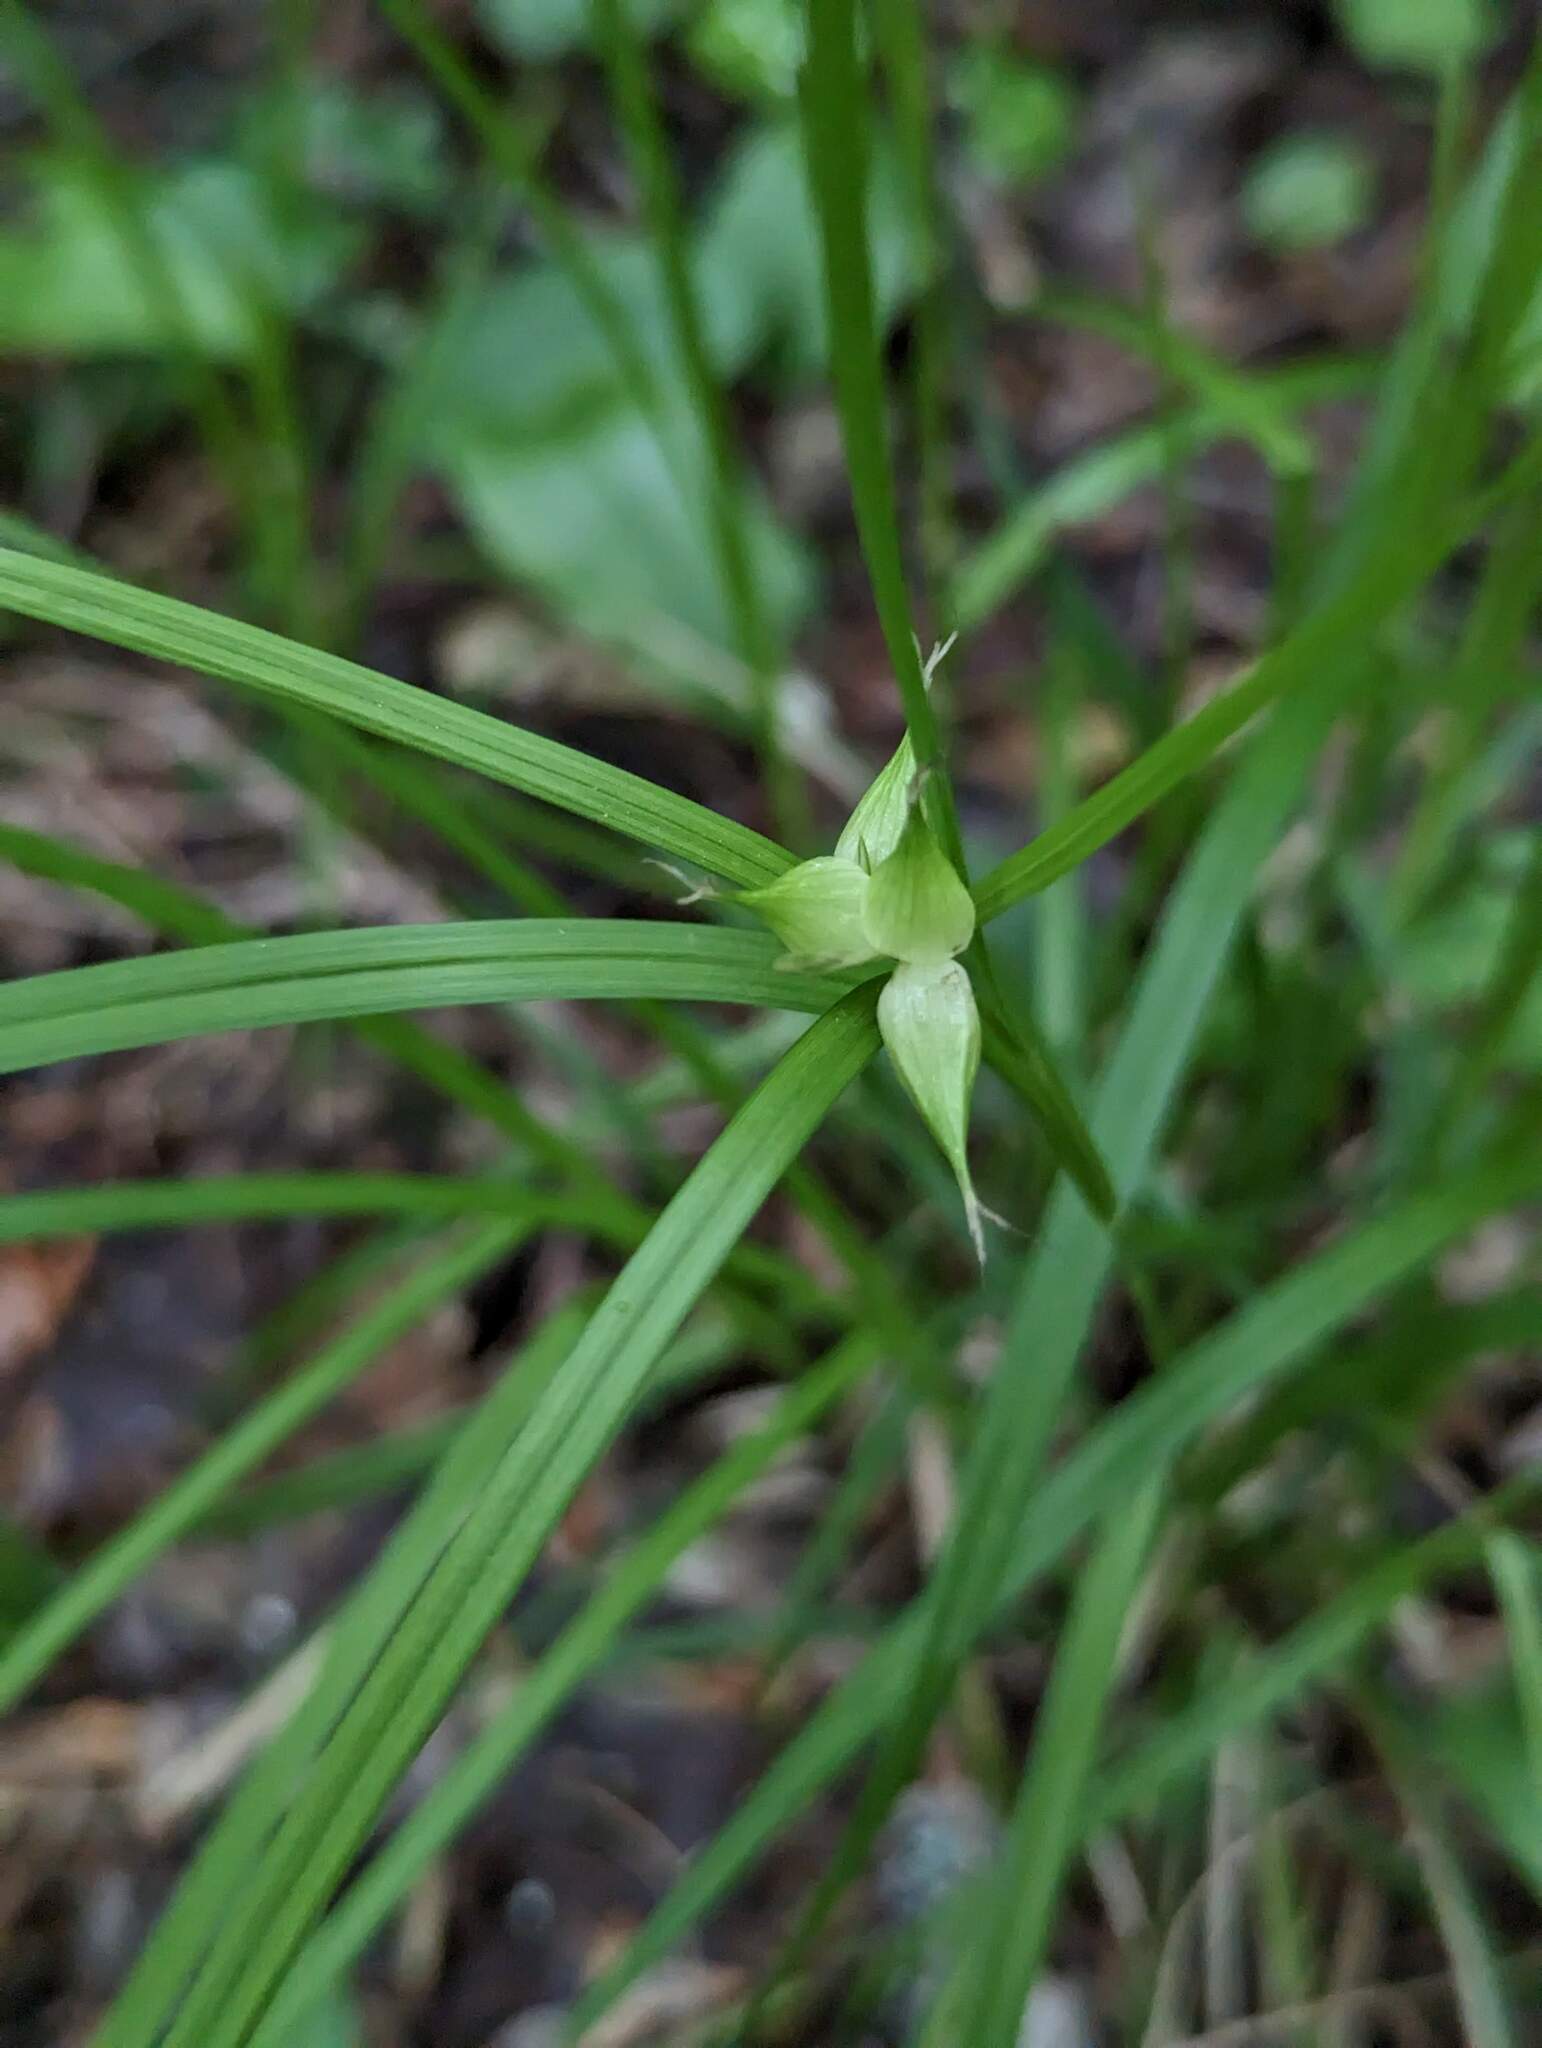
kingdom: Plantae
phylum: Tracheophyta
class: Liliopsida
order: Poales
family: Cyperaceae
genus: Carex
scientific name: Carex intumescens
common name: Greater bladder sedge
